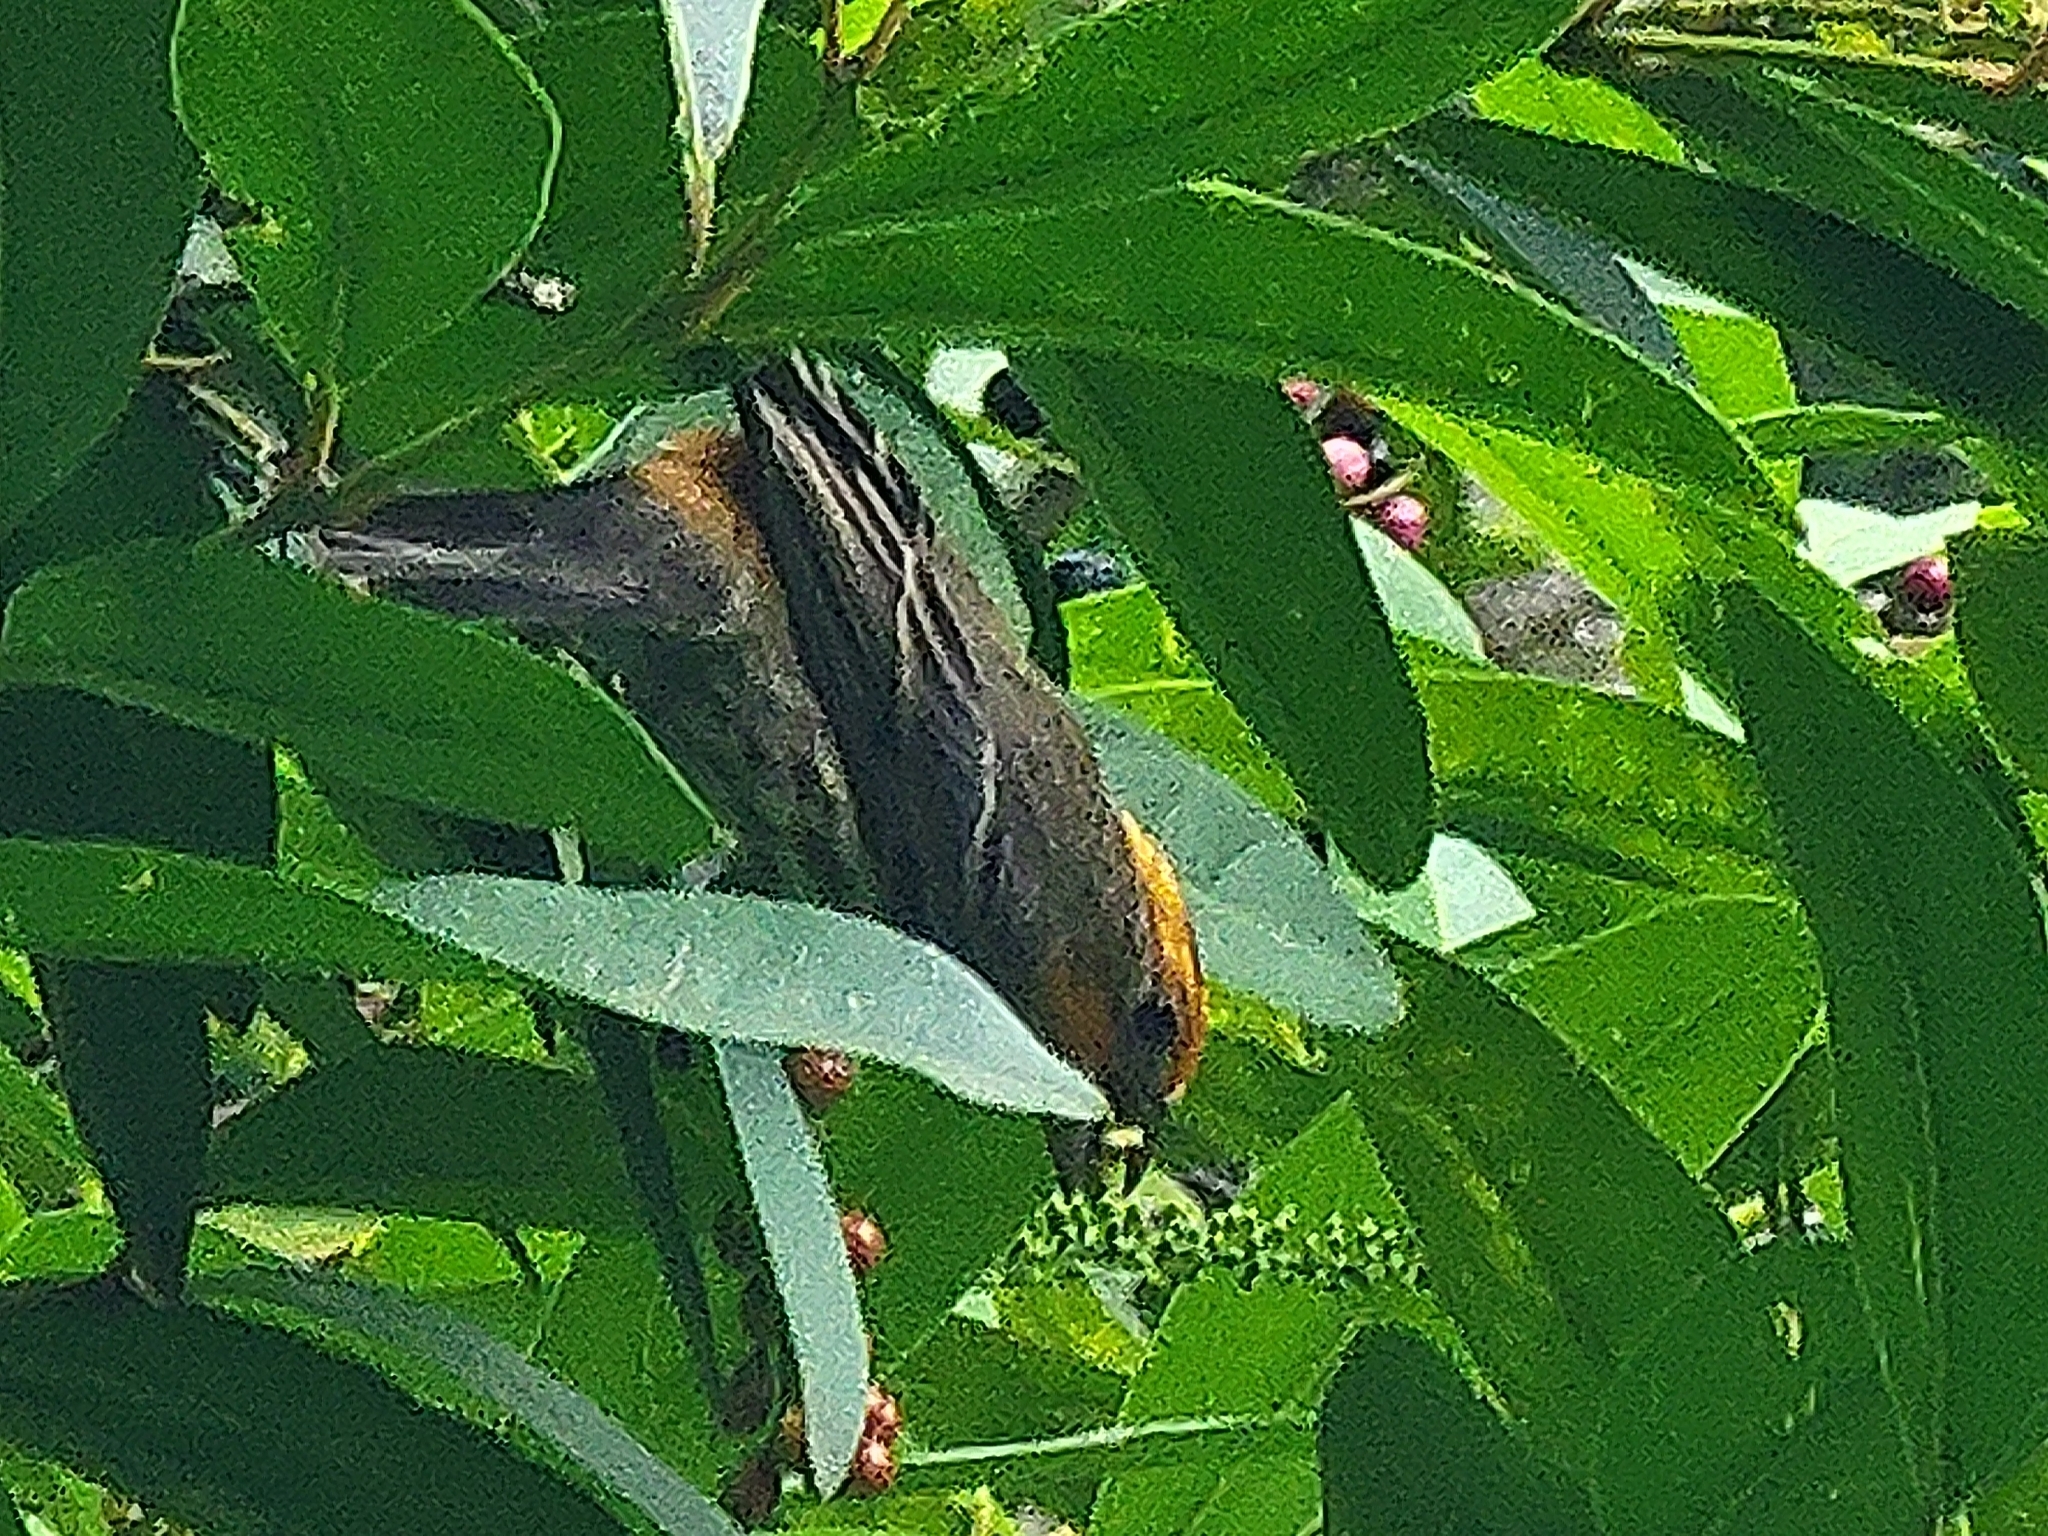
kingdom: Animalia
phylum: Chordata
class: Aves
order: Passeriformes
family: Fringillidae
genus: Haemorhous
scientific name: Haemorhous mexicanus
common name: House finch
